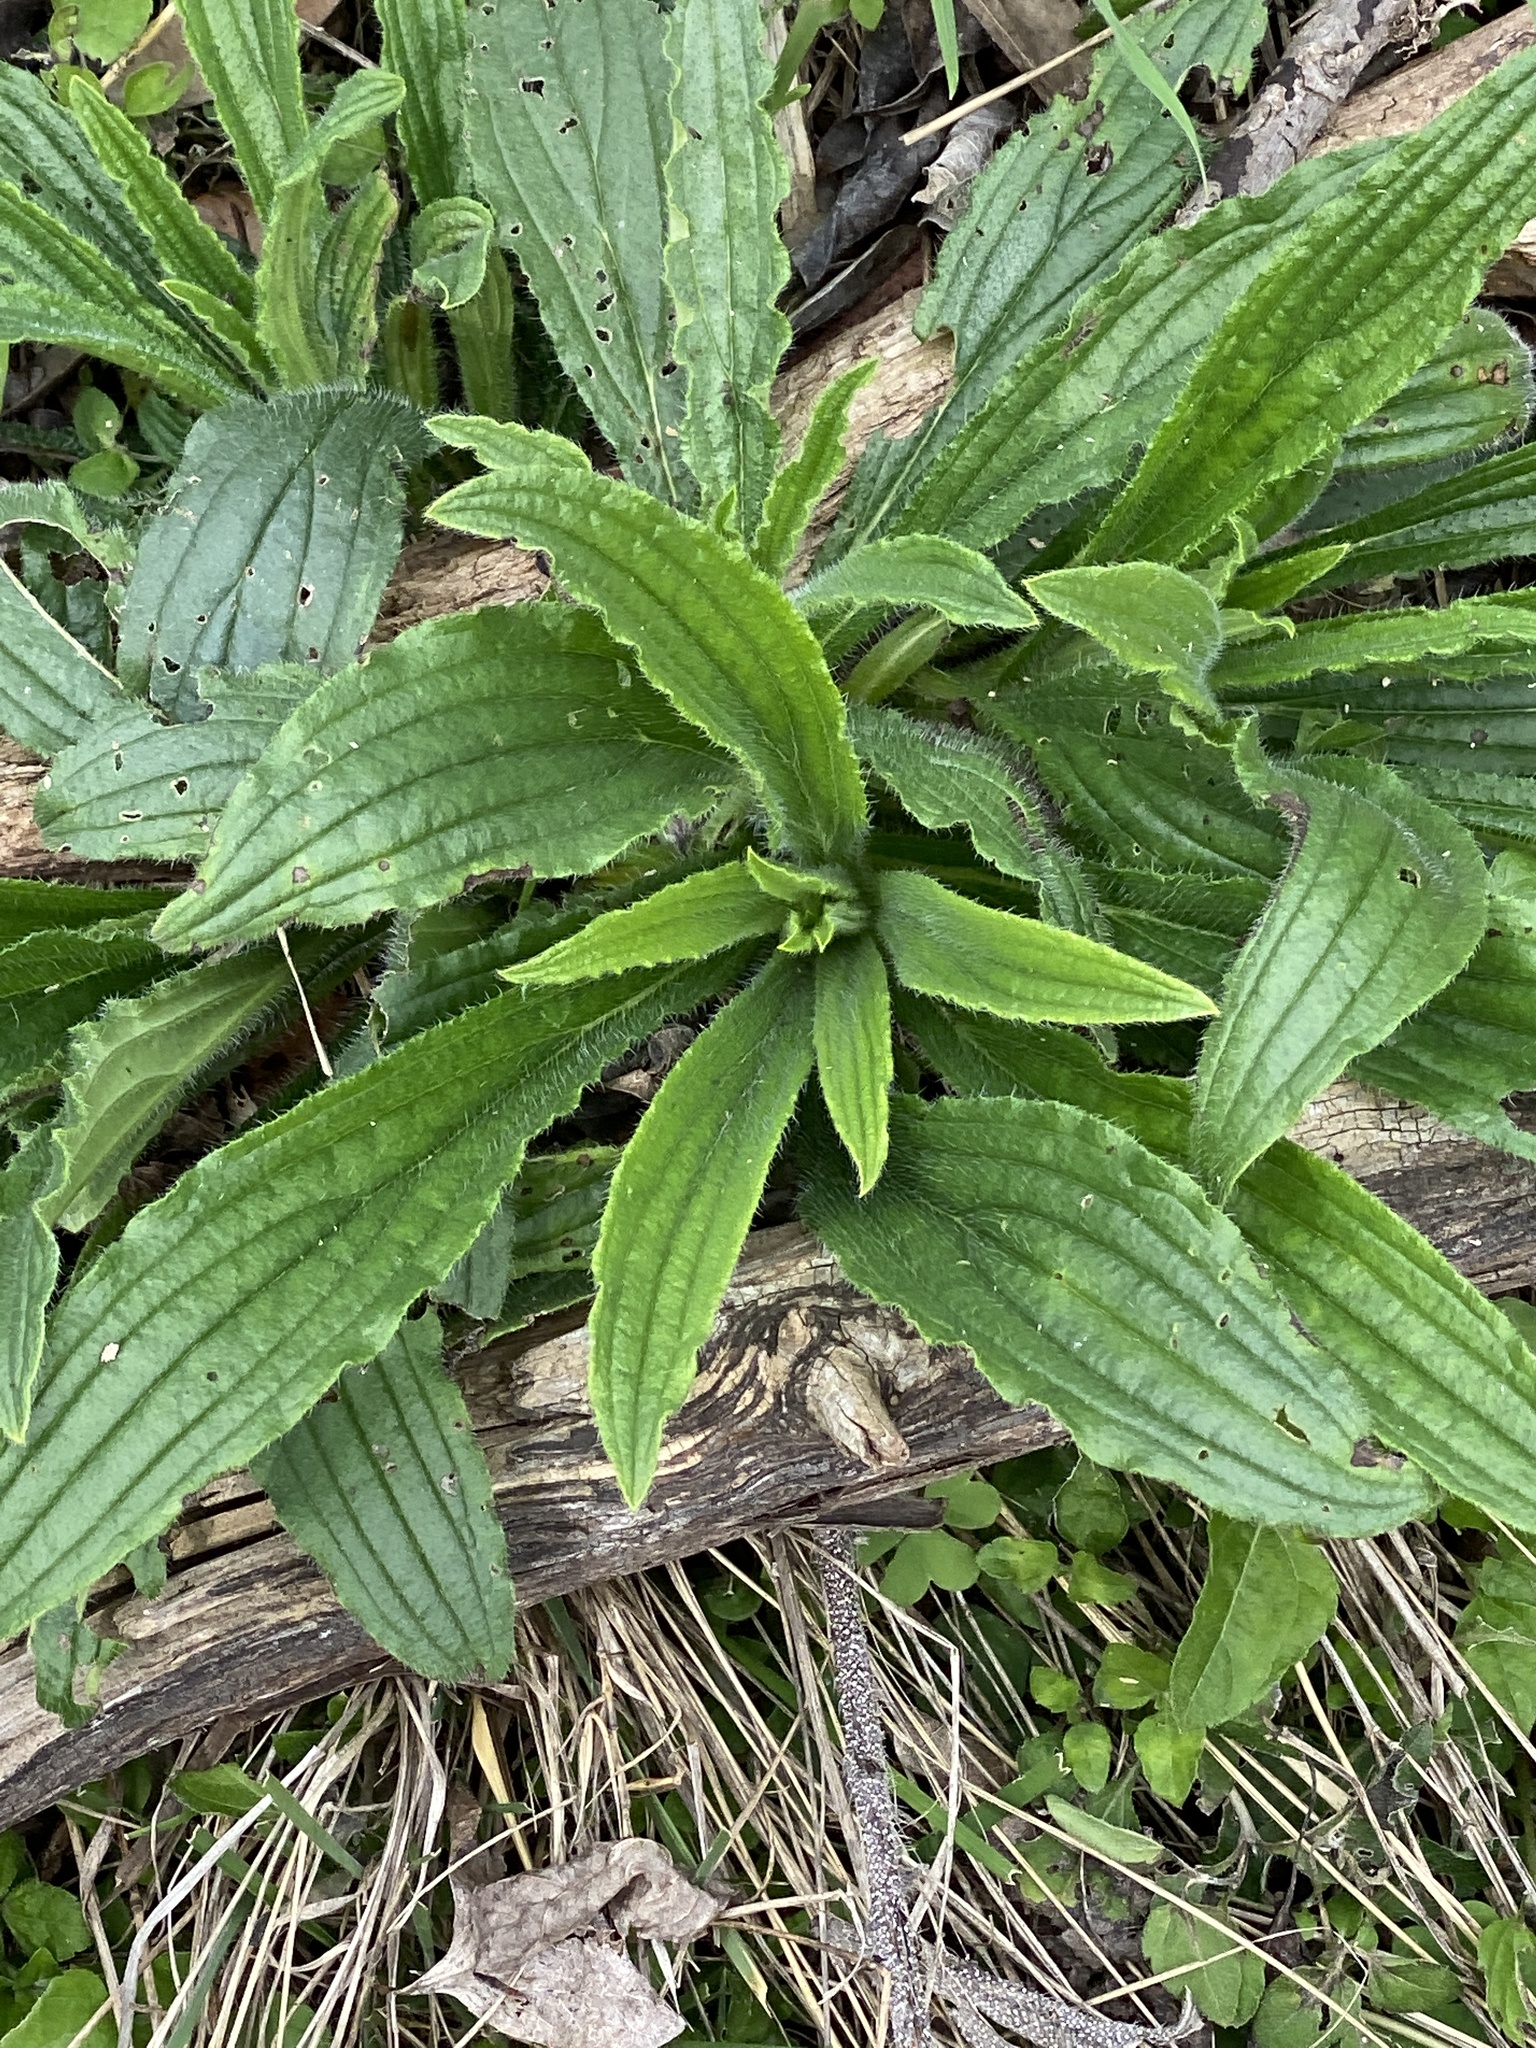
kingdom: Plantae
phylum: Tracheophyta
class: Magnoliopsida
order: Boraginales
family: Boraginaceae
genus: Lithospermum
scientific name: Lithospermum caroliniense
